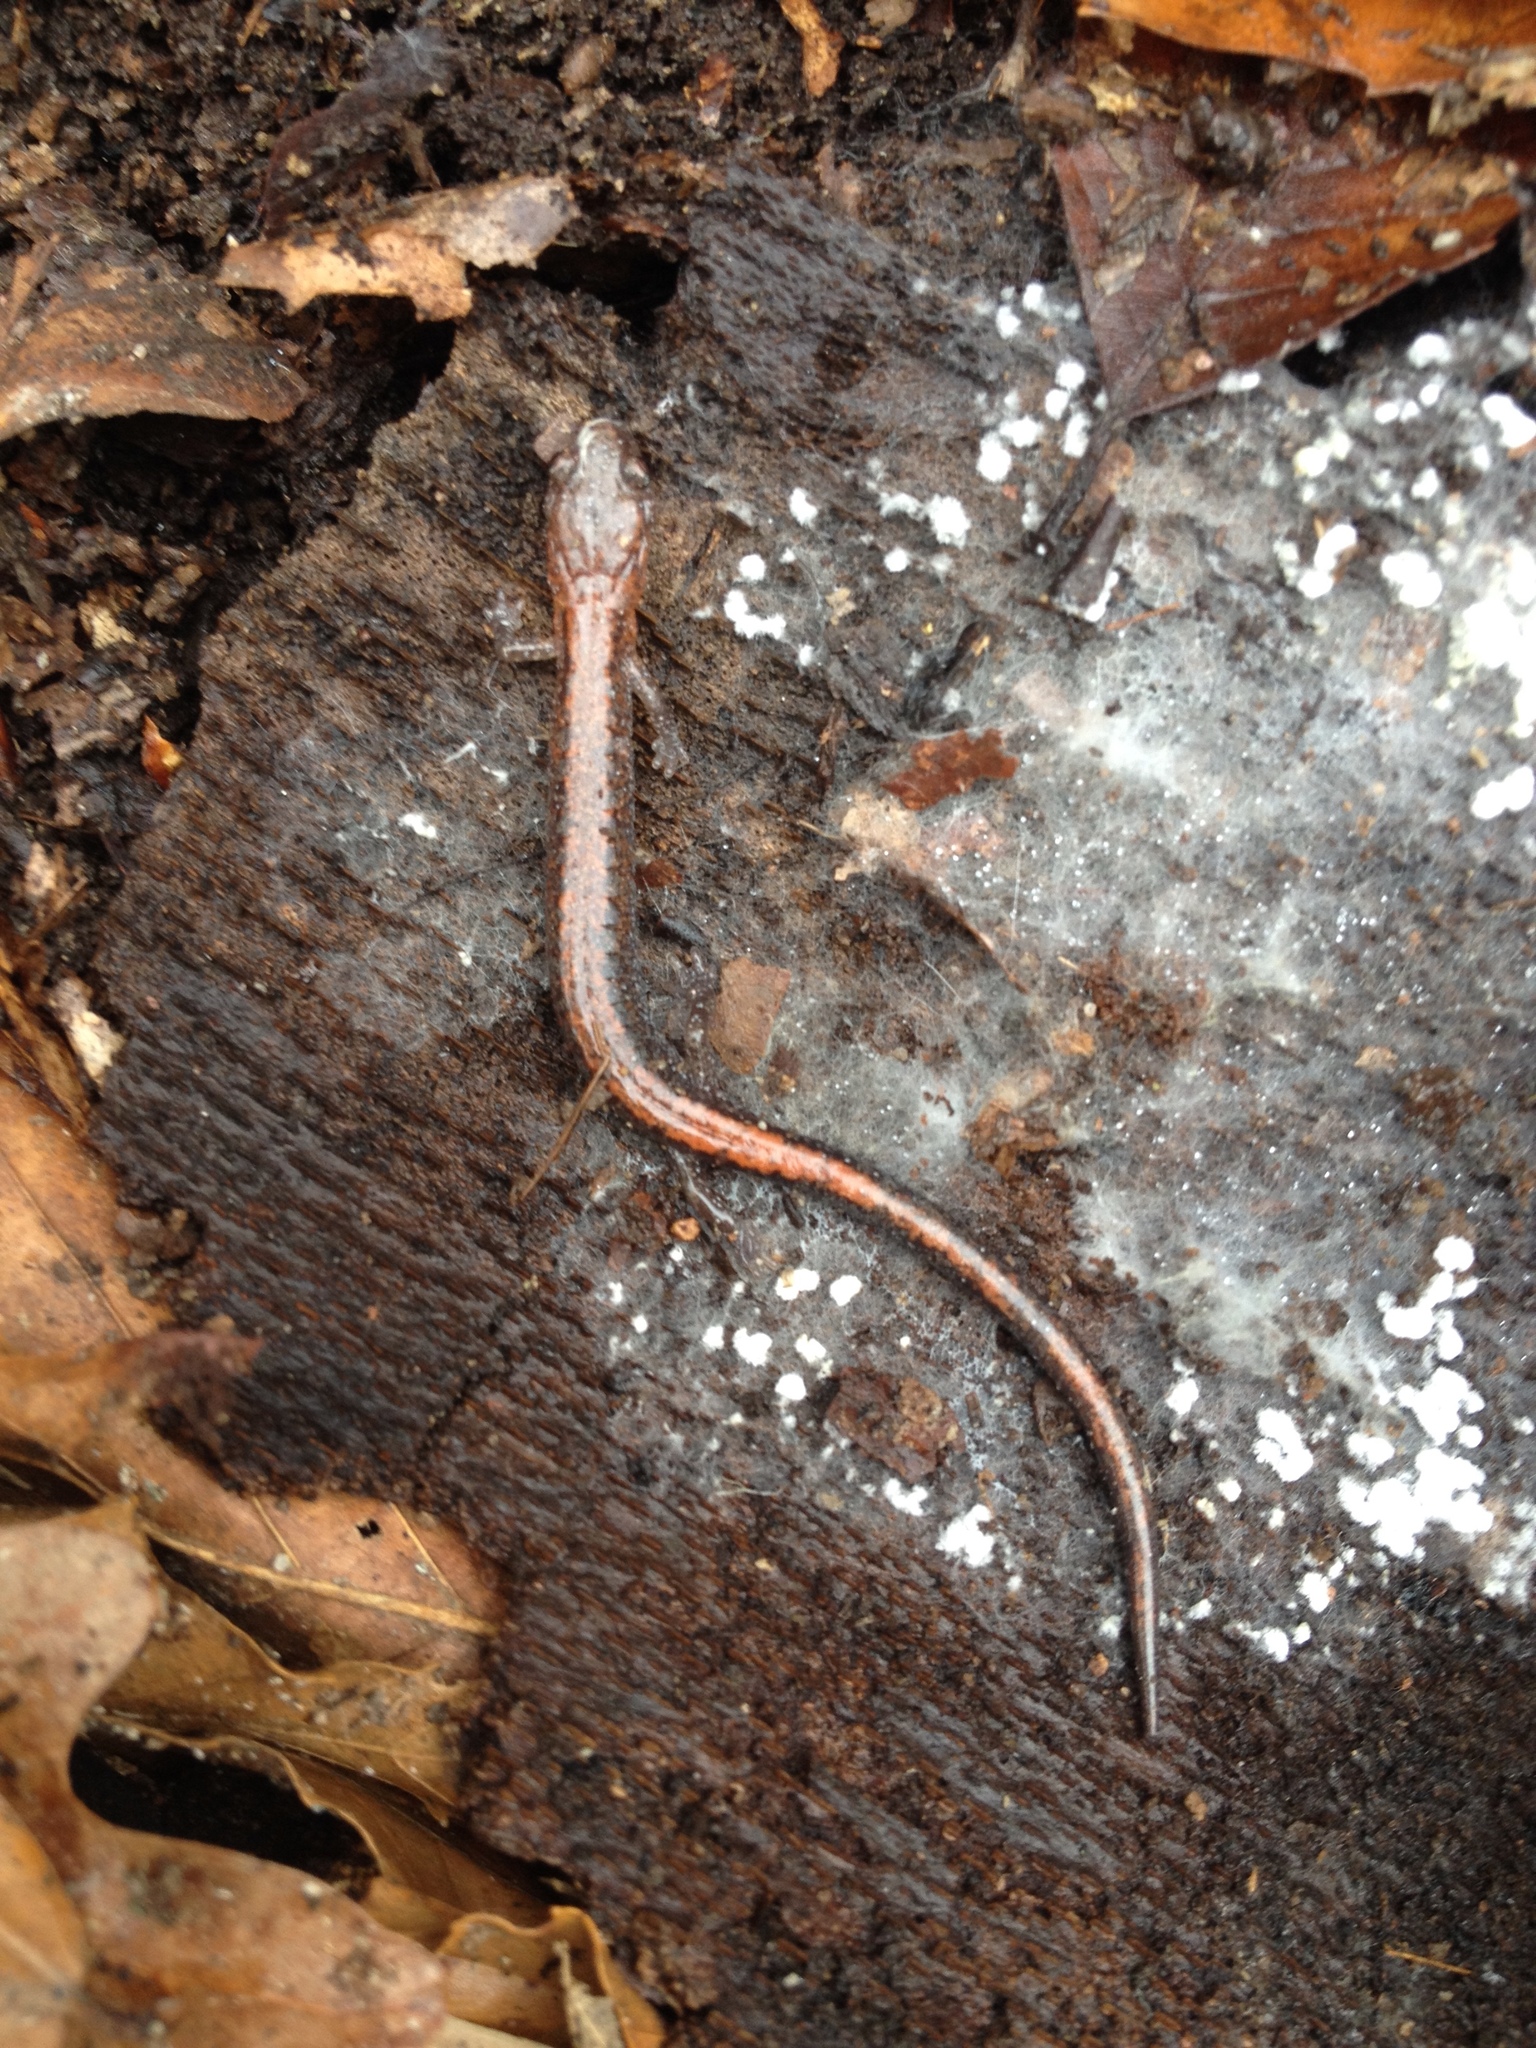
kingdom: Animalia
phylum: Chordata
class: Amphibia
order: Caudata
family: Plethodontidae
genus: Plethodon
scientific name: Plethodon cinereus
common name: Redback salamander
